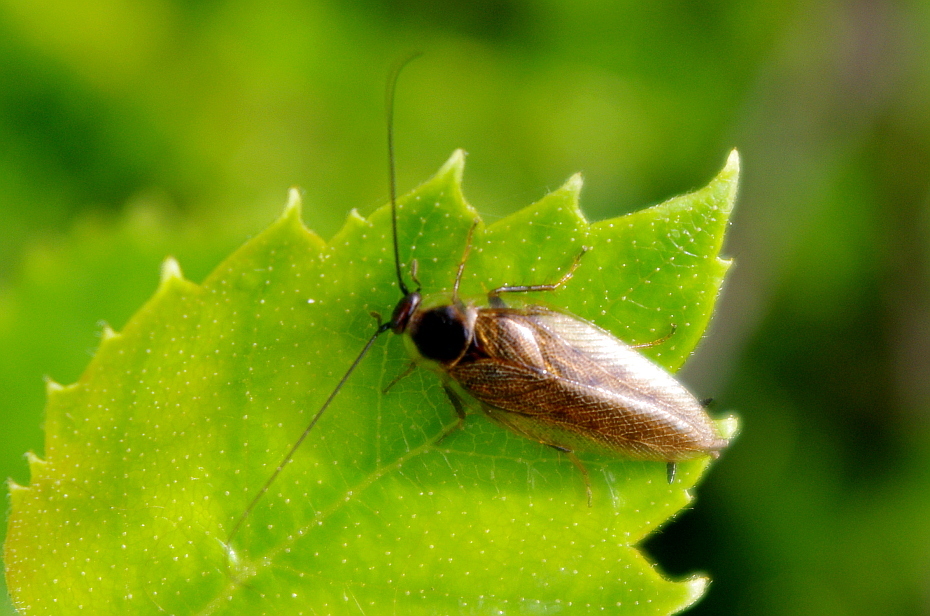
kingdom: Animalia
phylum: Arthropoda
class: Insecta
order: Blattodea
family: Ectobiidae
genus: Ectobius
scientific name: Ectobius lapponicus
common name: Dusky cockroach
